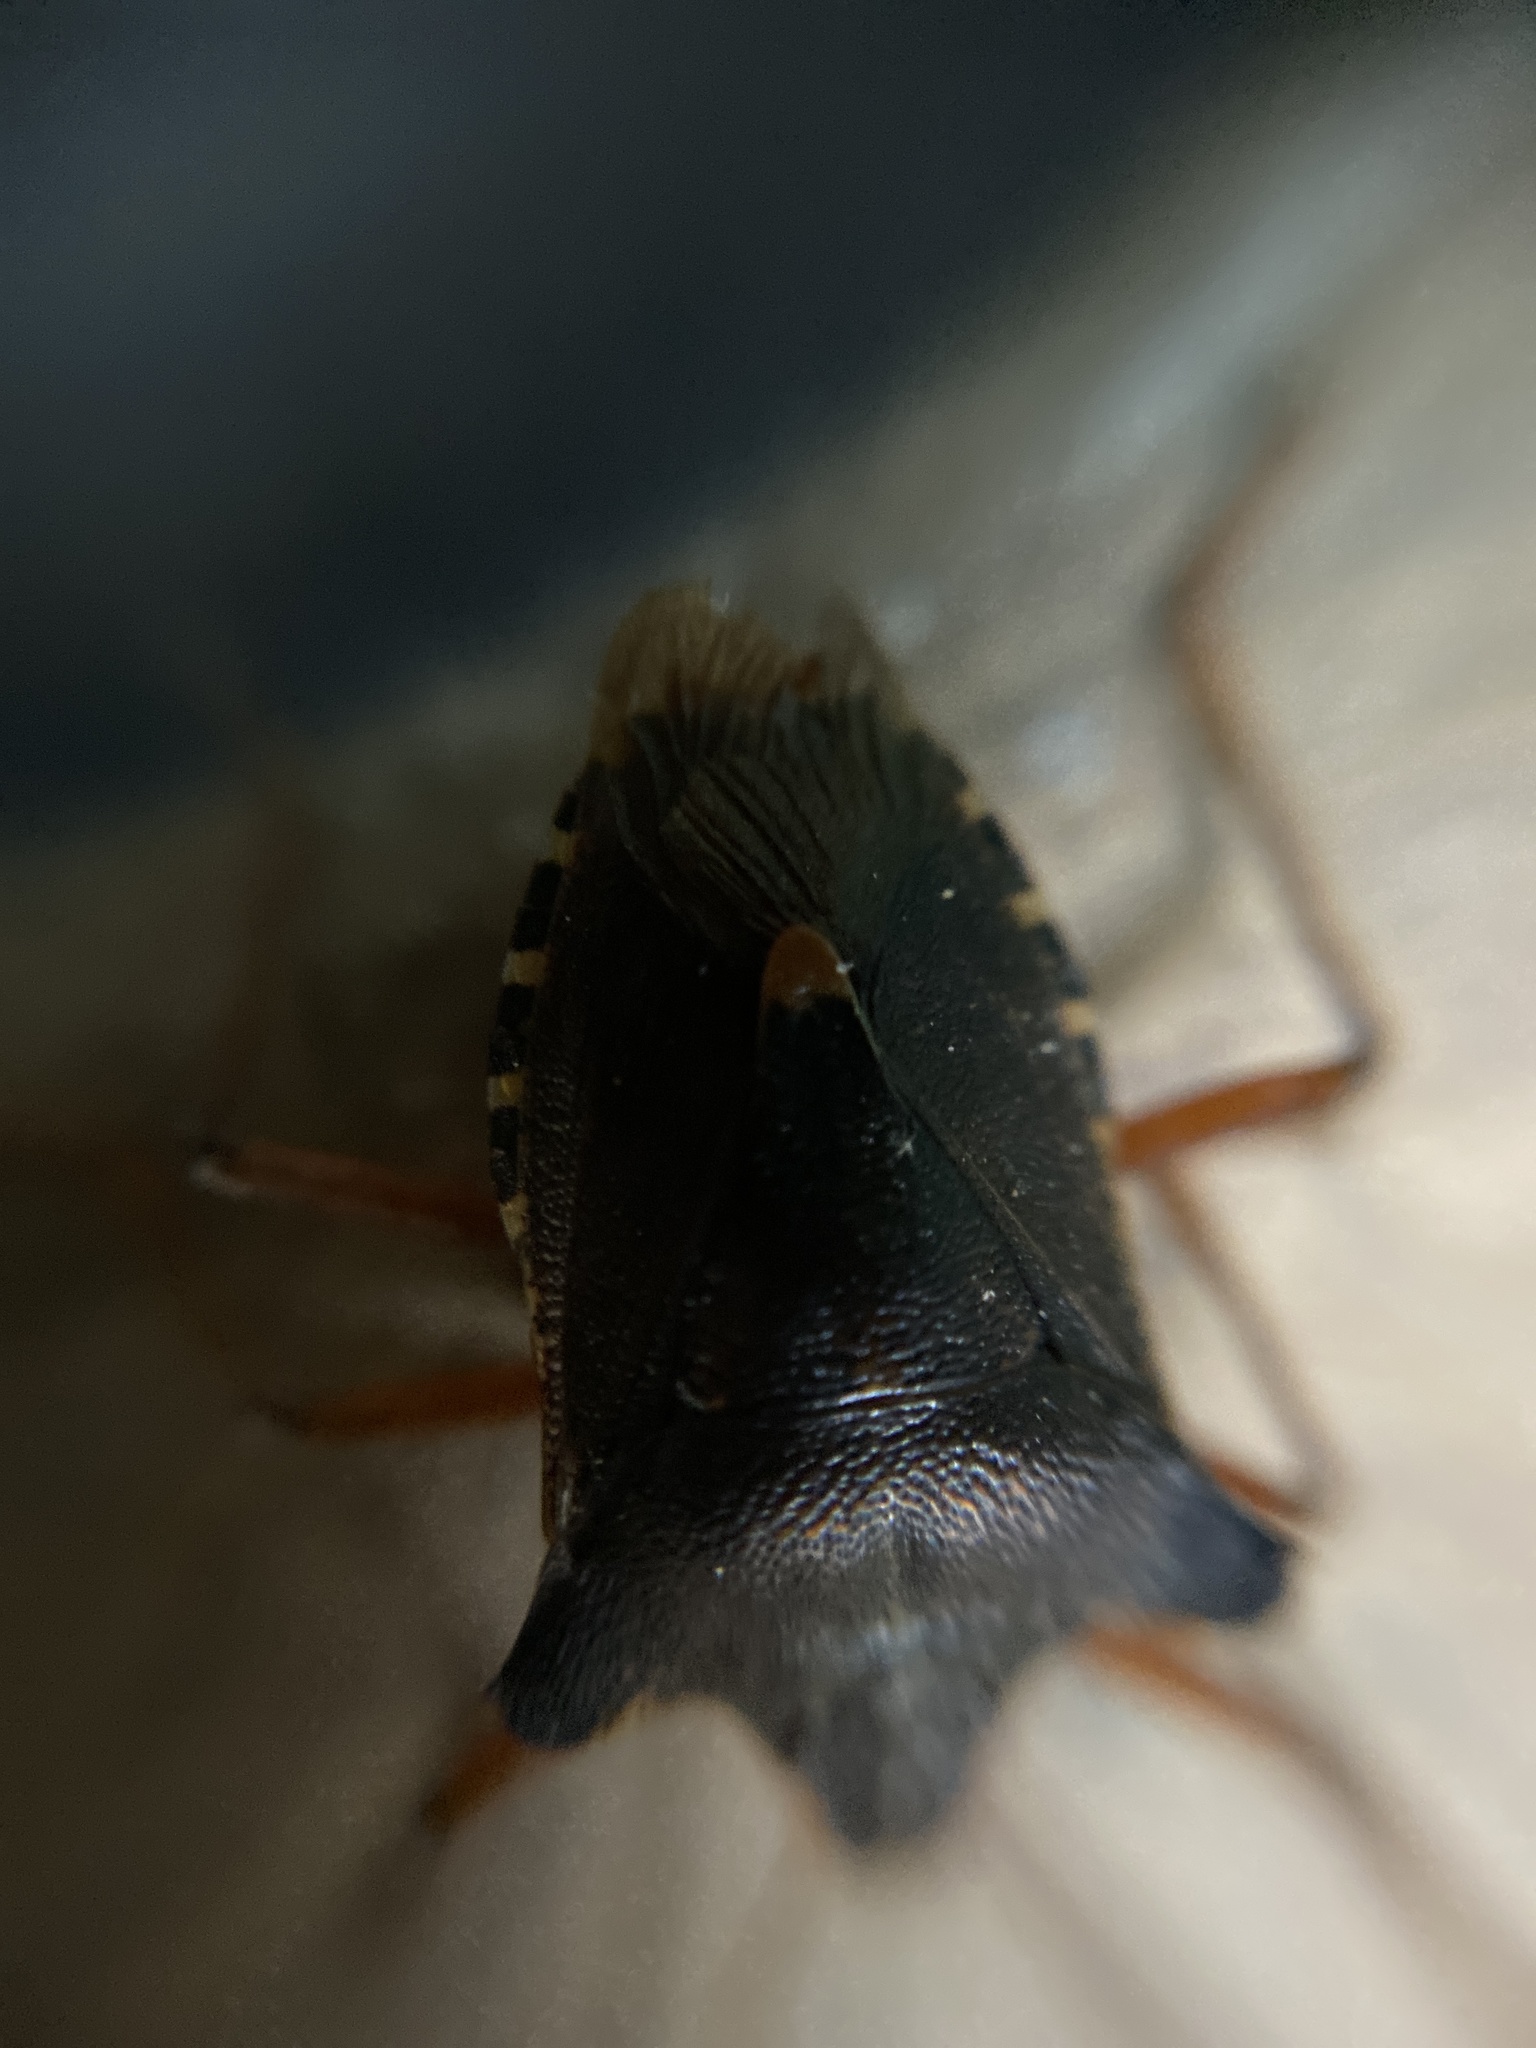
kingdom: Animalia
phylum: Arthropoda
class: Insecta
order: Hemiptera
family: Pentatomidae
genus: Pentatoma
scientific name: Pentatoma rufipes
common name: Forest bug
